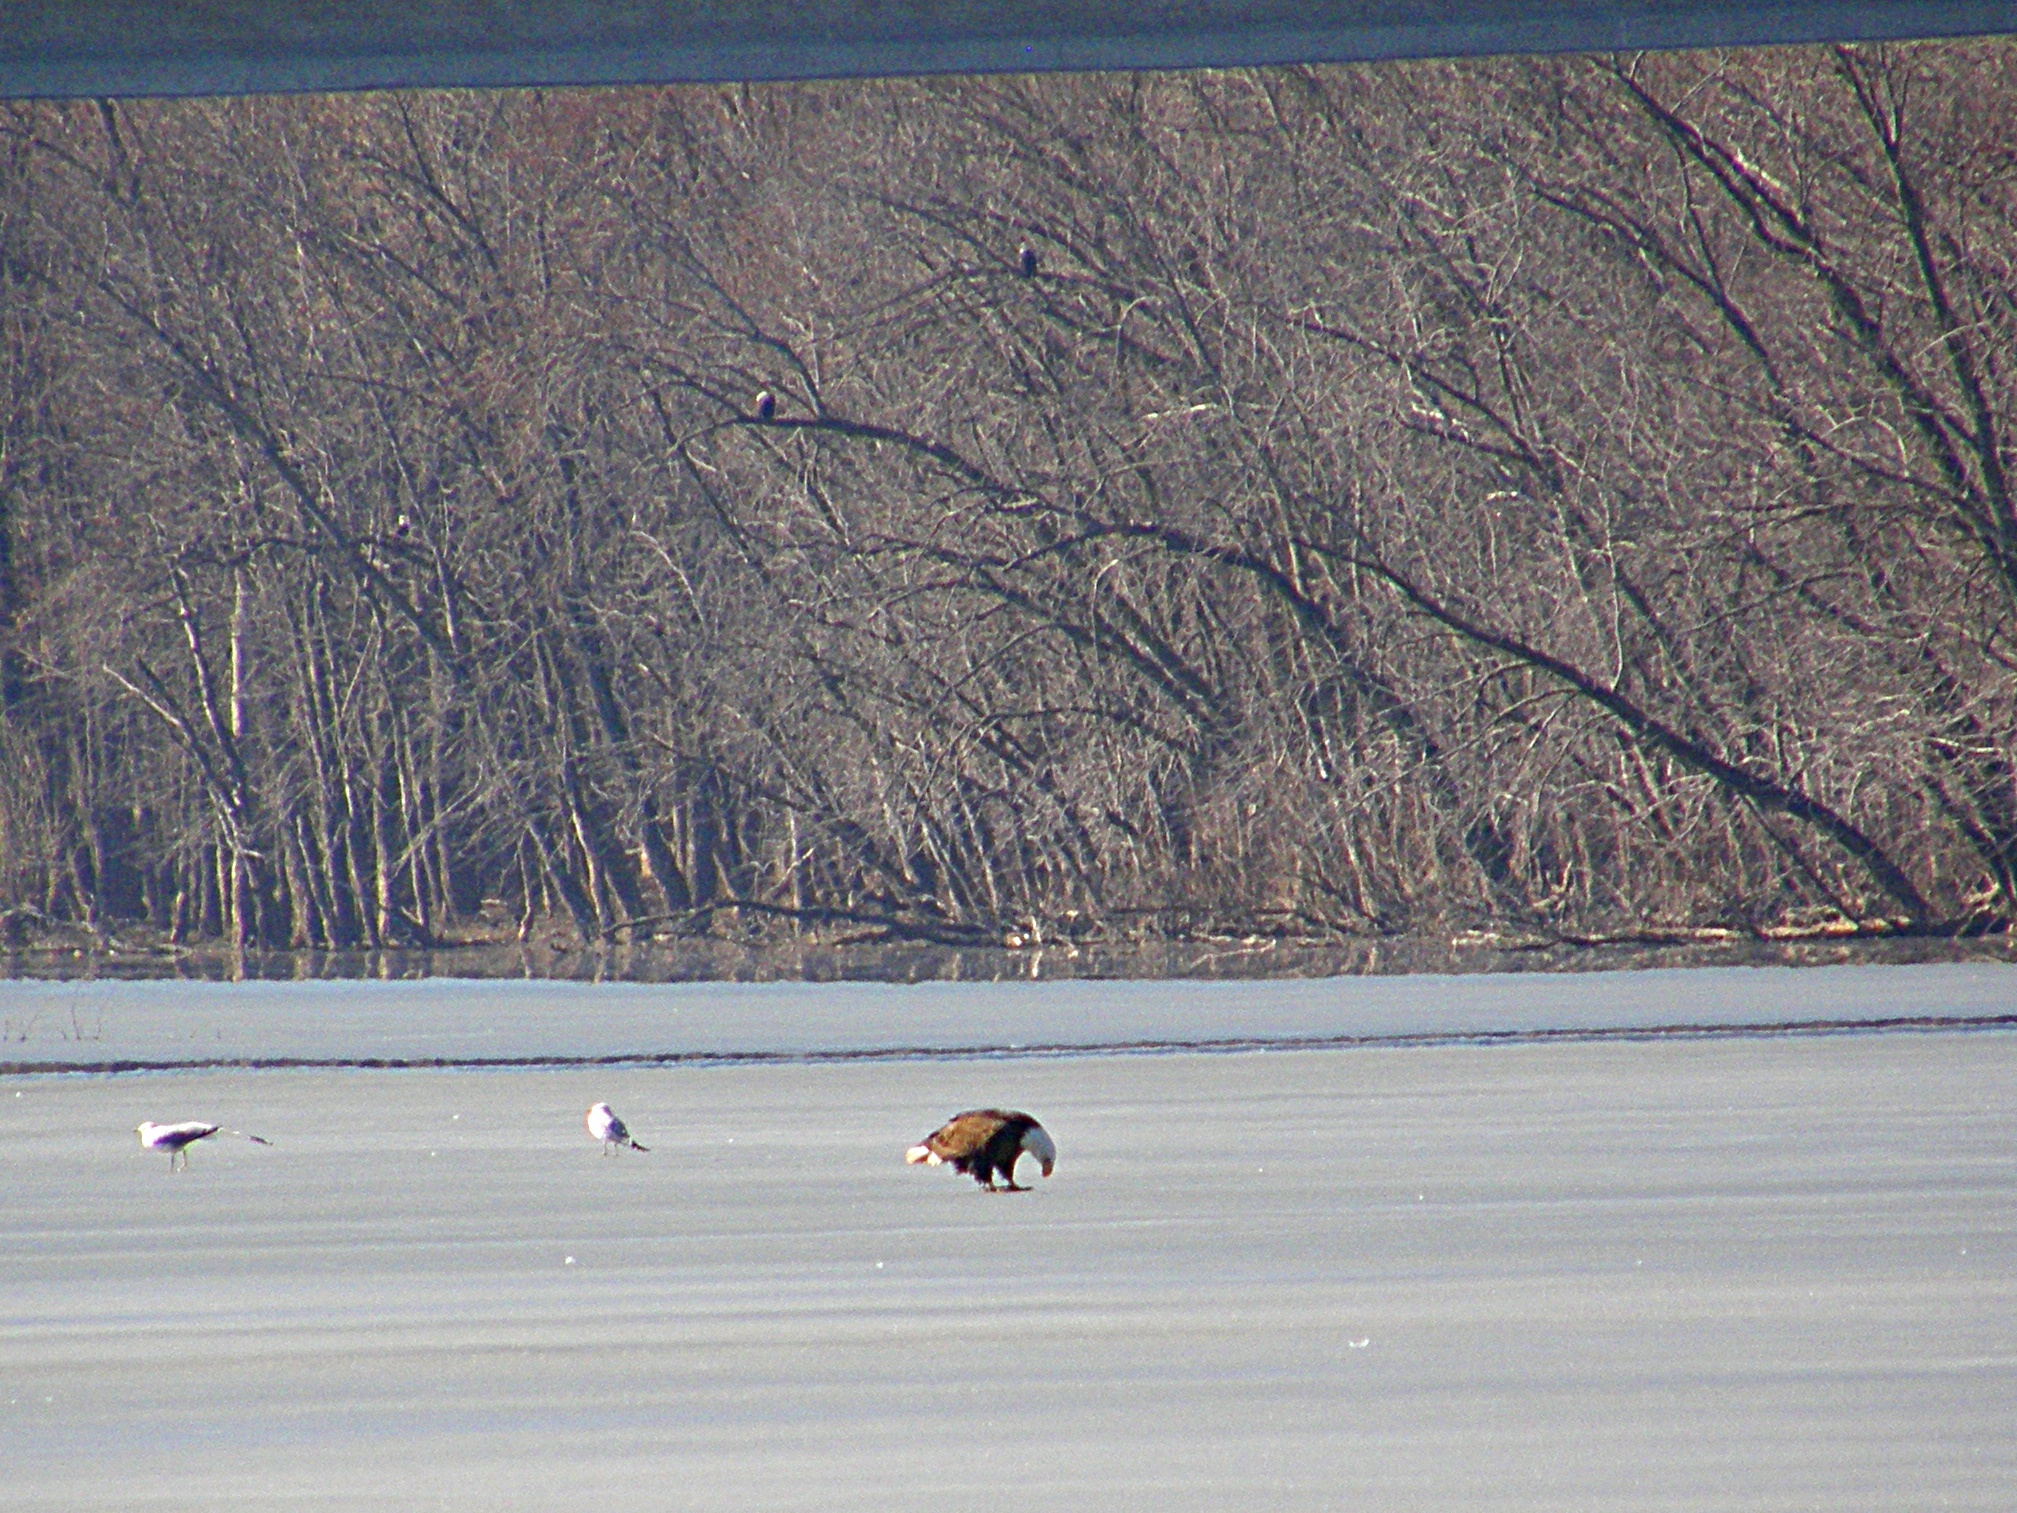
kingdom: Animalia
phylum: Chordata
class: Aves
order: Accipitriformes
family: Accipitridae
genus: Haliaeetus
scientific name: Haliaeetus leucocephalus
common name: Bald eagle
